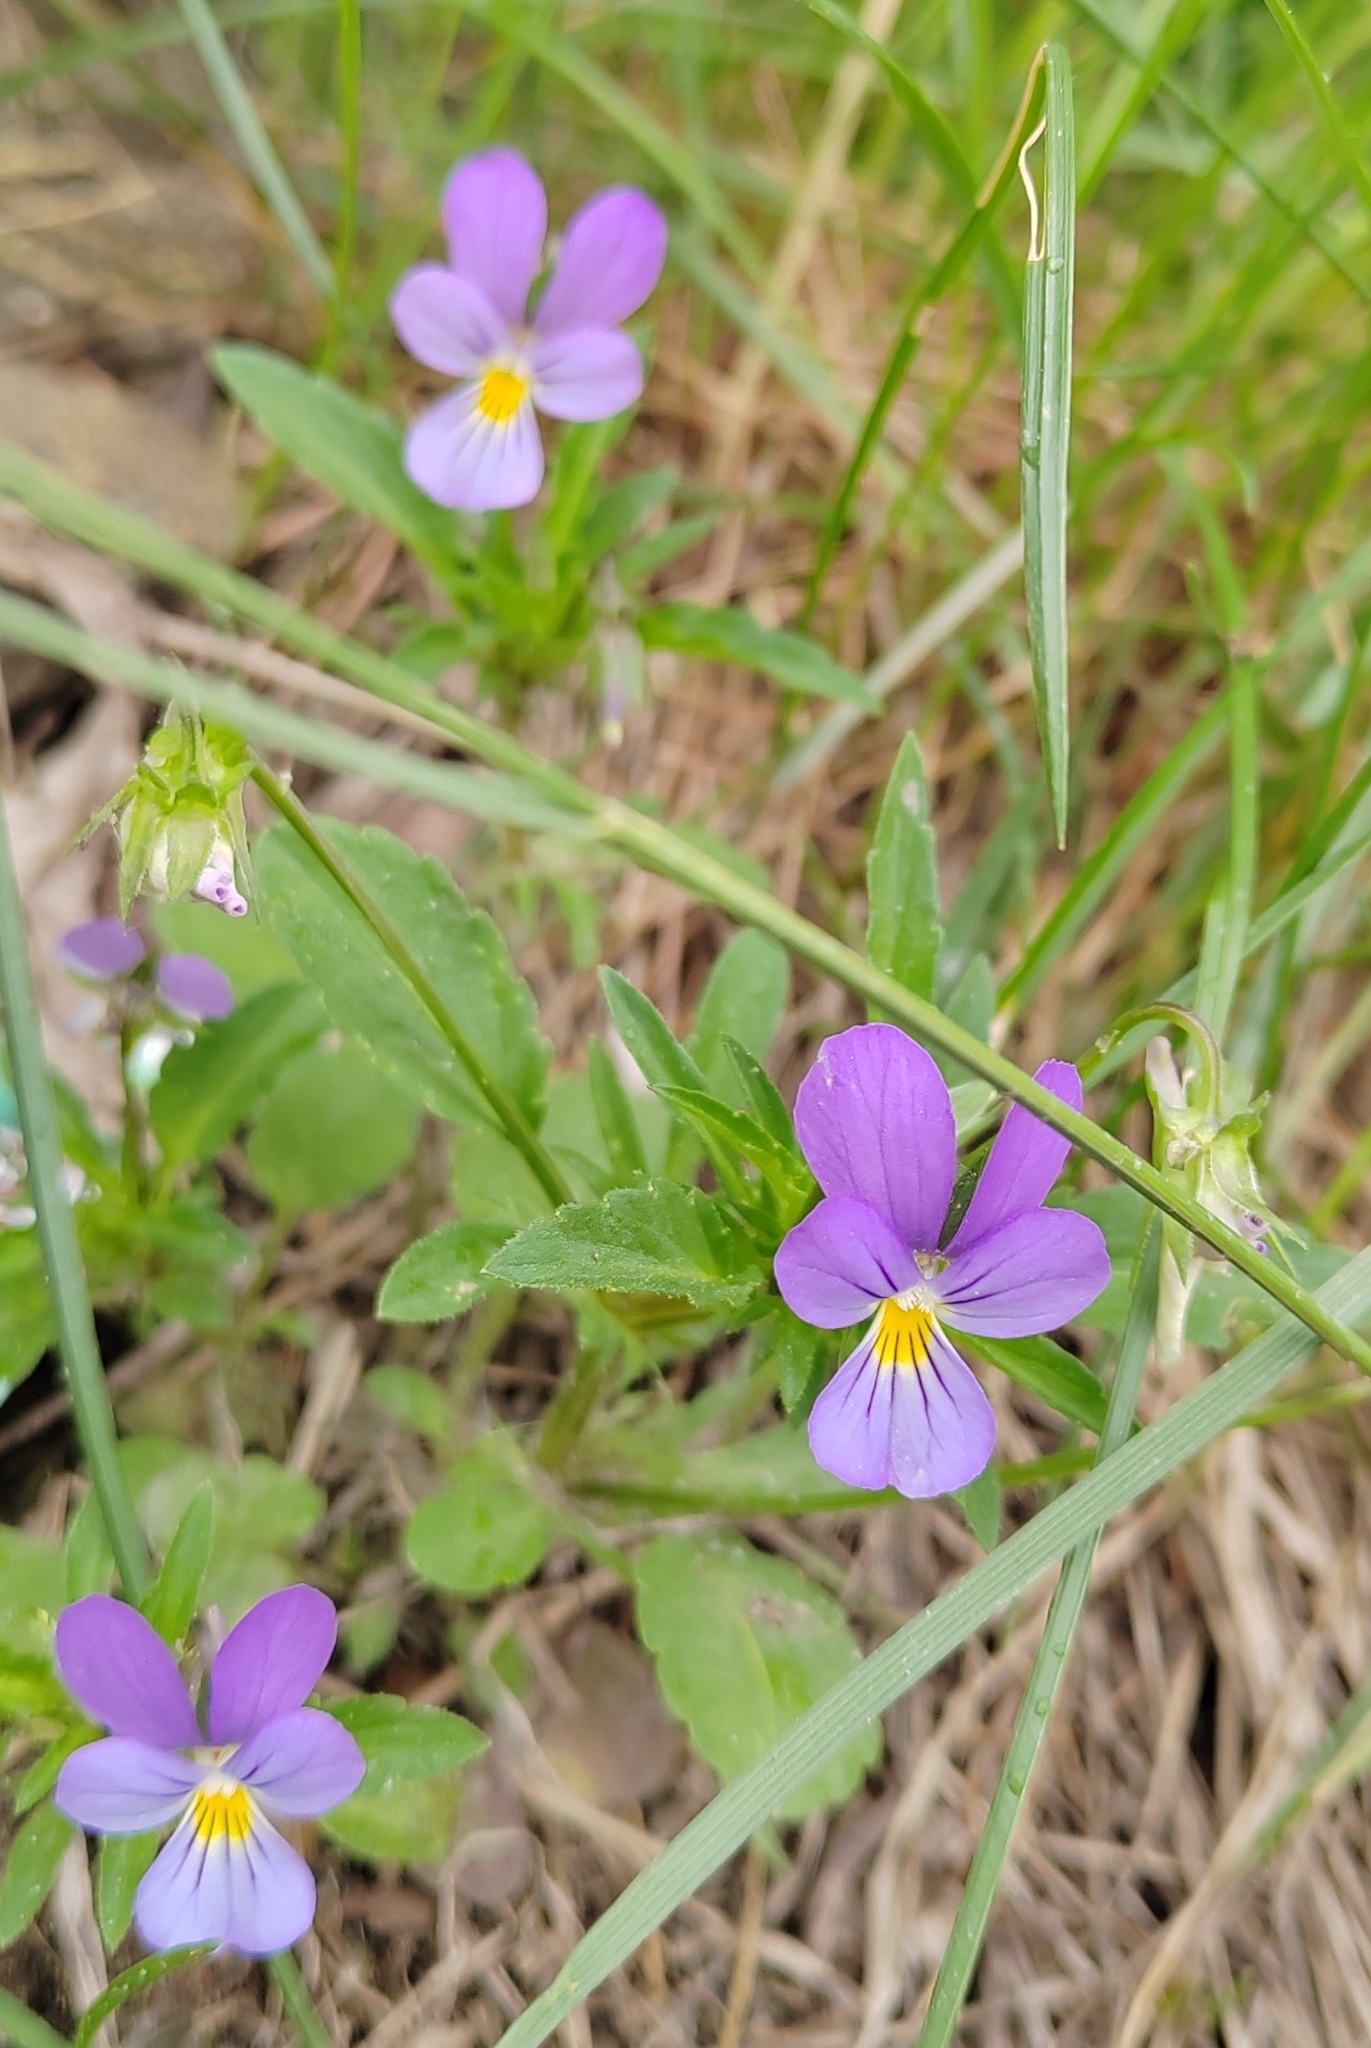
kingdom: Plantae
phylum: Tracheophyta
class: Magnoliopsida
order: Malpighiales
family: Violaceae
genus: Viola
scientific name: Viola tricolor
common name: Pansy
